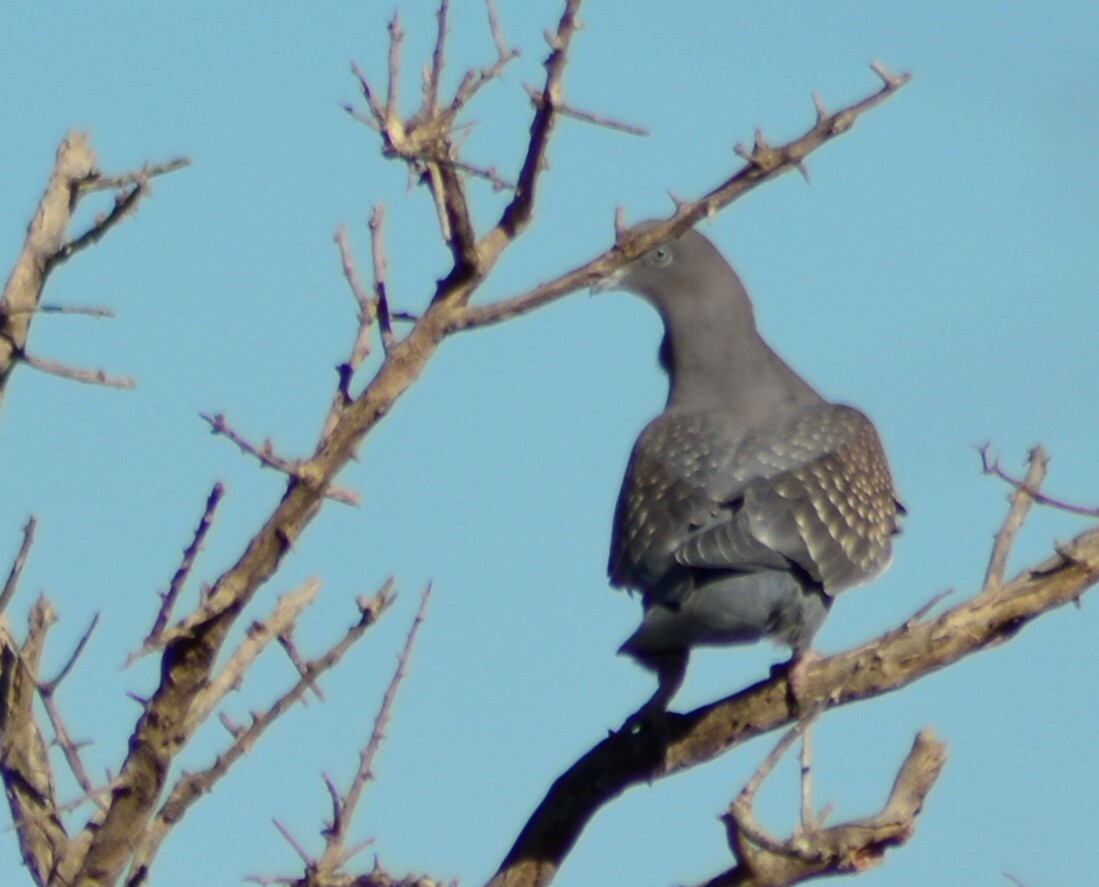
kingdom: Animalia
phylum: Chordata
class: Aves
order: Columbiformes
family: Columbidae
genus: Patagioenas
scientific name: Patagioenas maculosa
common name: Spot-winged pigeon
